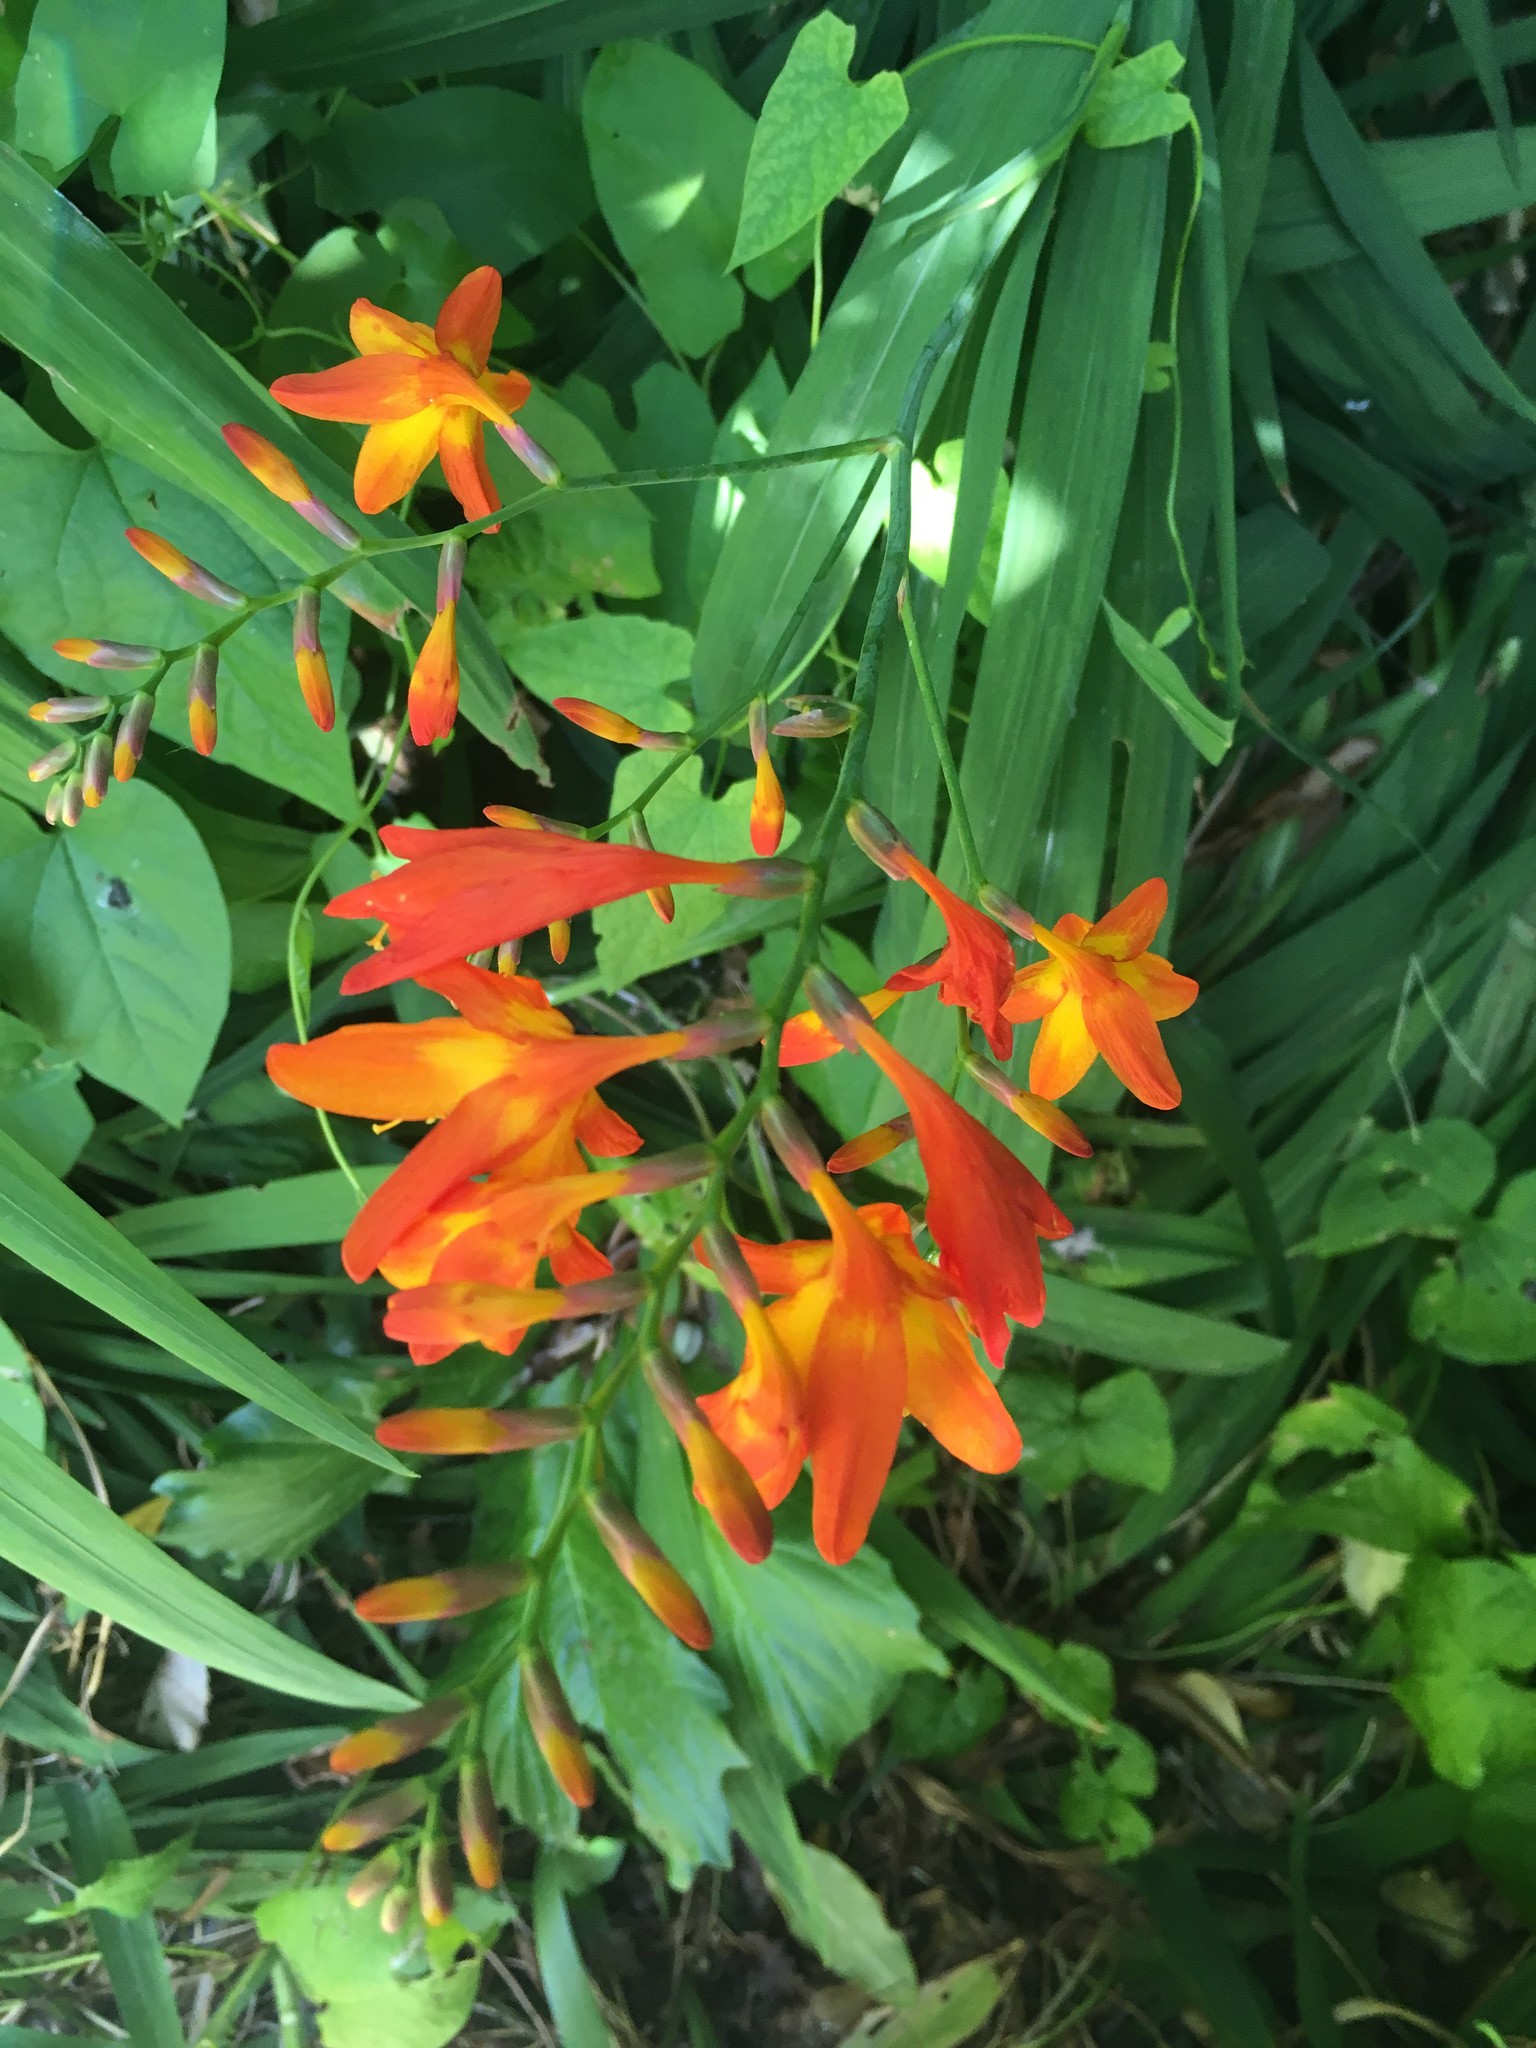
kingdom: Plantae
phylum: Tracheophyta
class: Liliopsida
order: Asparagales
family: Iridaceae
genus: Crocosmia
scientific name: Crocosmia crocosmiiflora
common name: Montbretia
